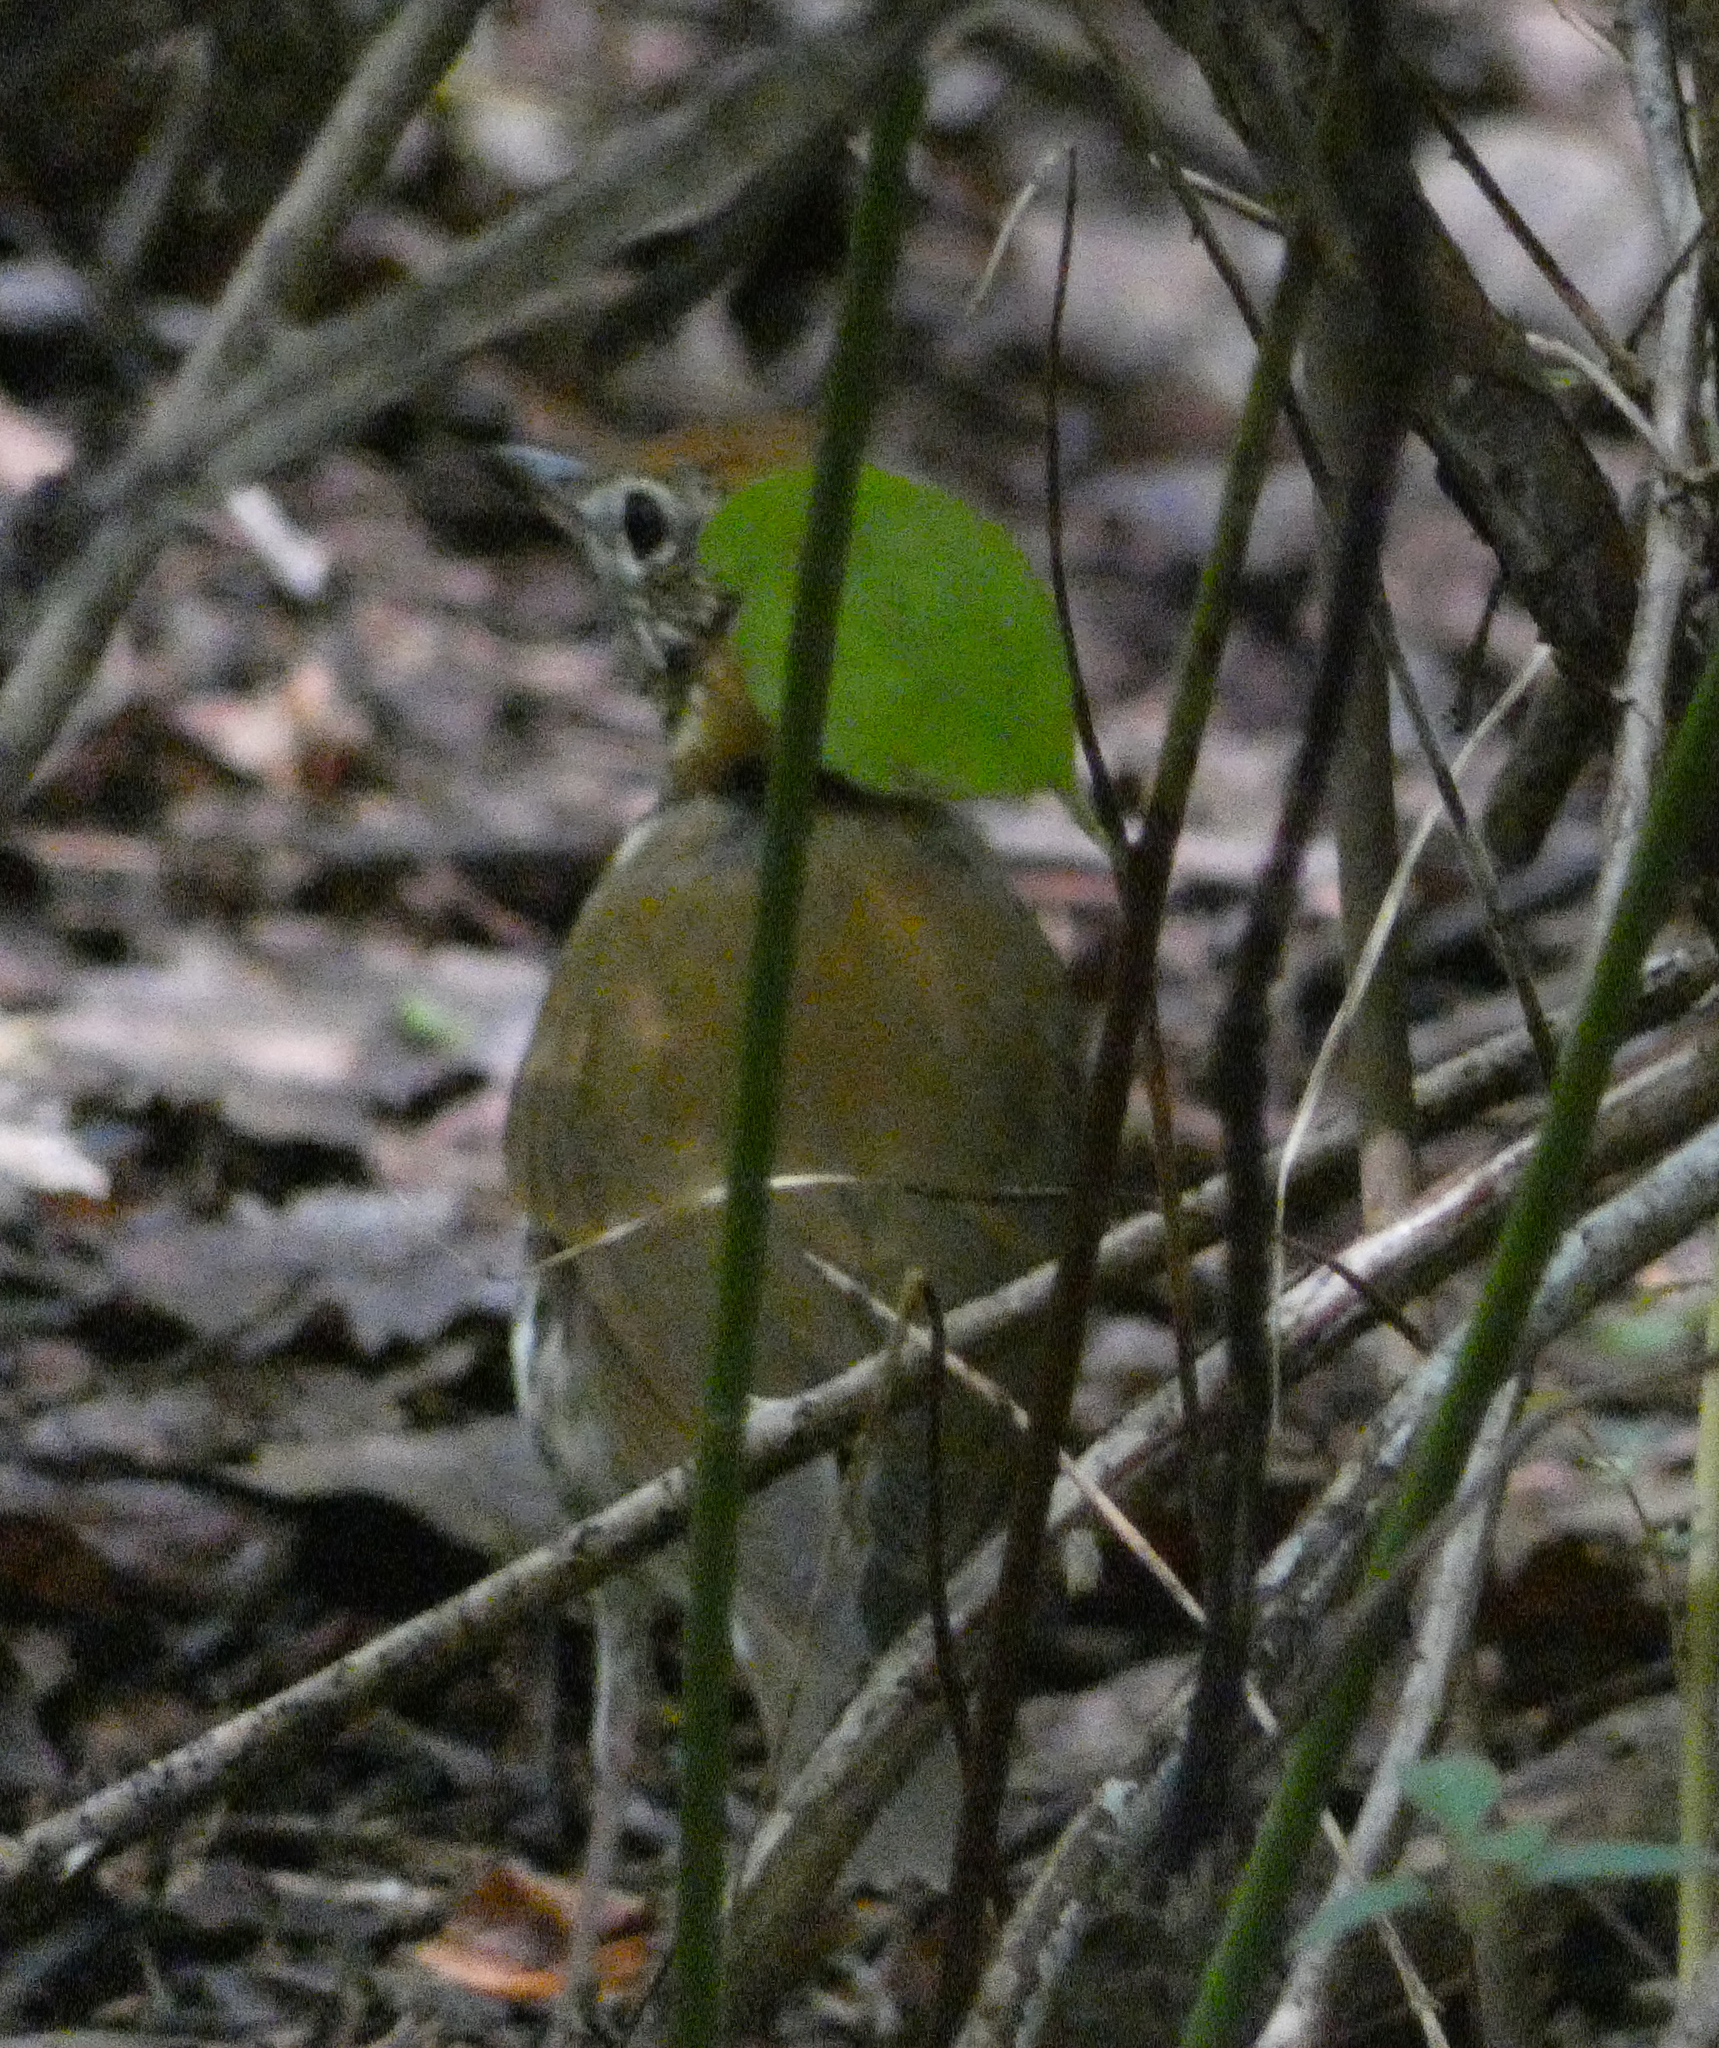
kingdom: Animalia
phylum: Chordata
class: Aves
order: Passeriformes
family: Turdidae
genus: Hylocichla
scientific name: Hylocichla mustelina
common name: Wood thrush
